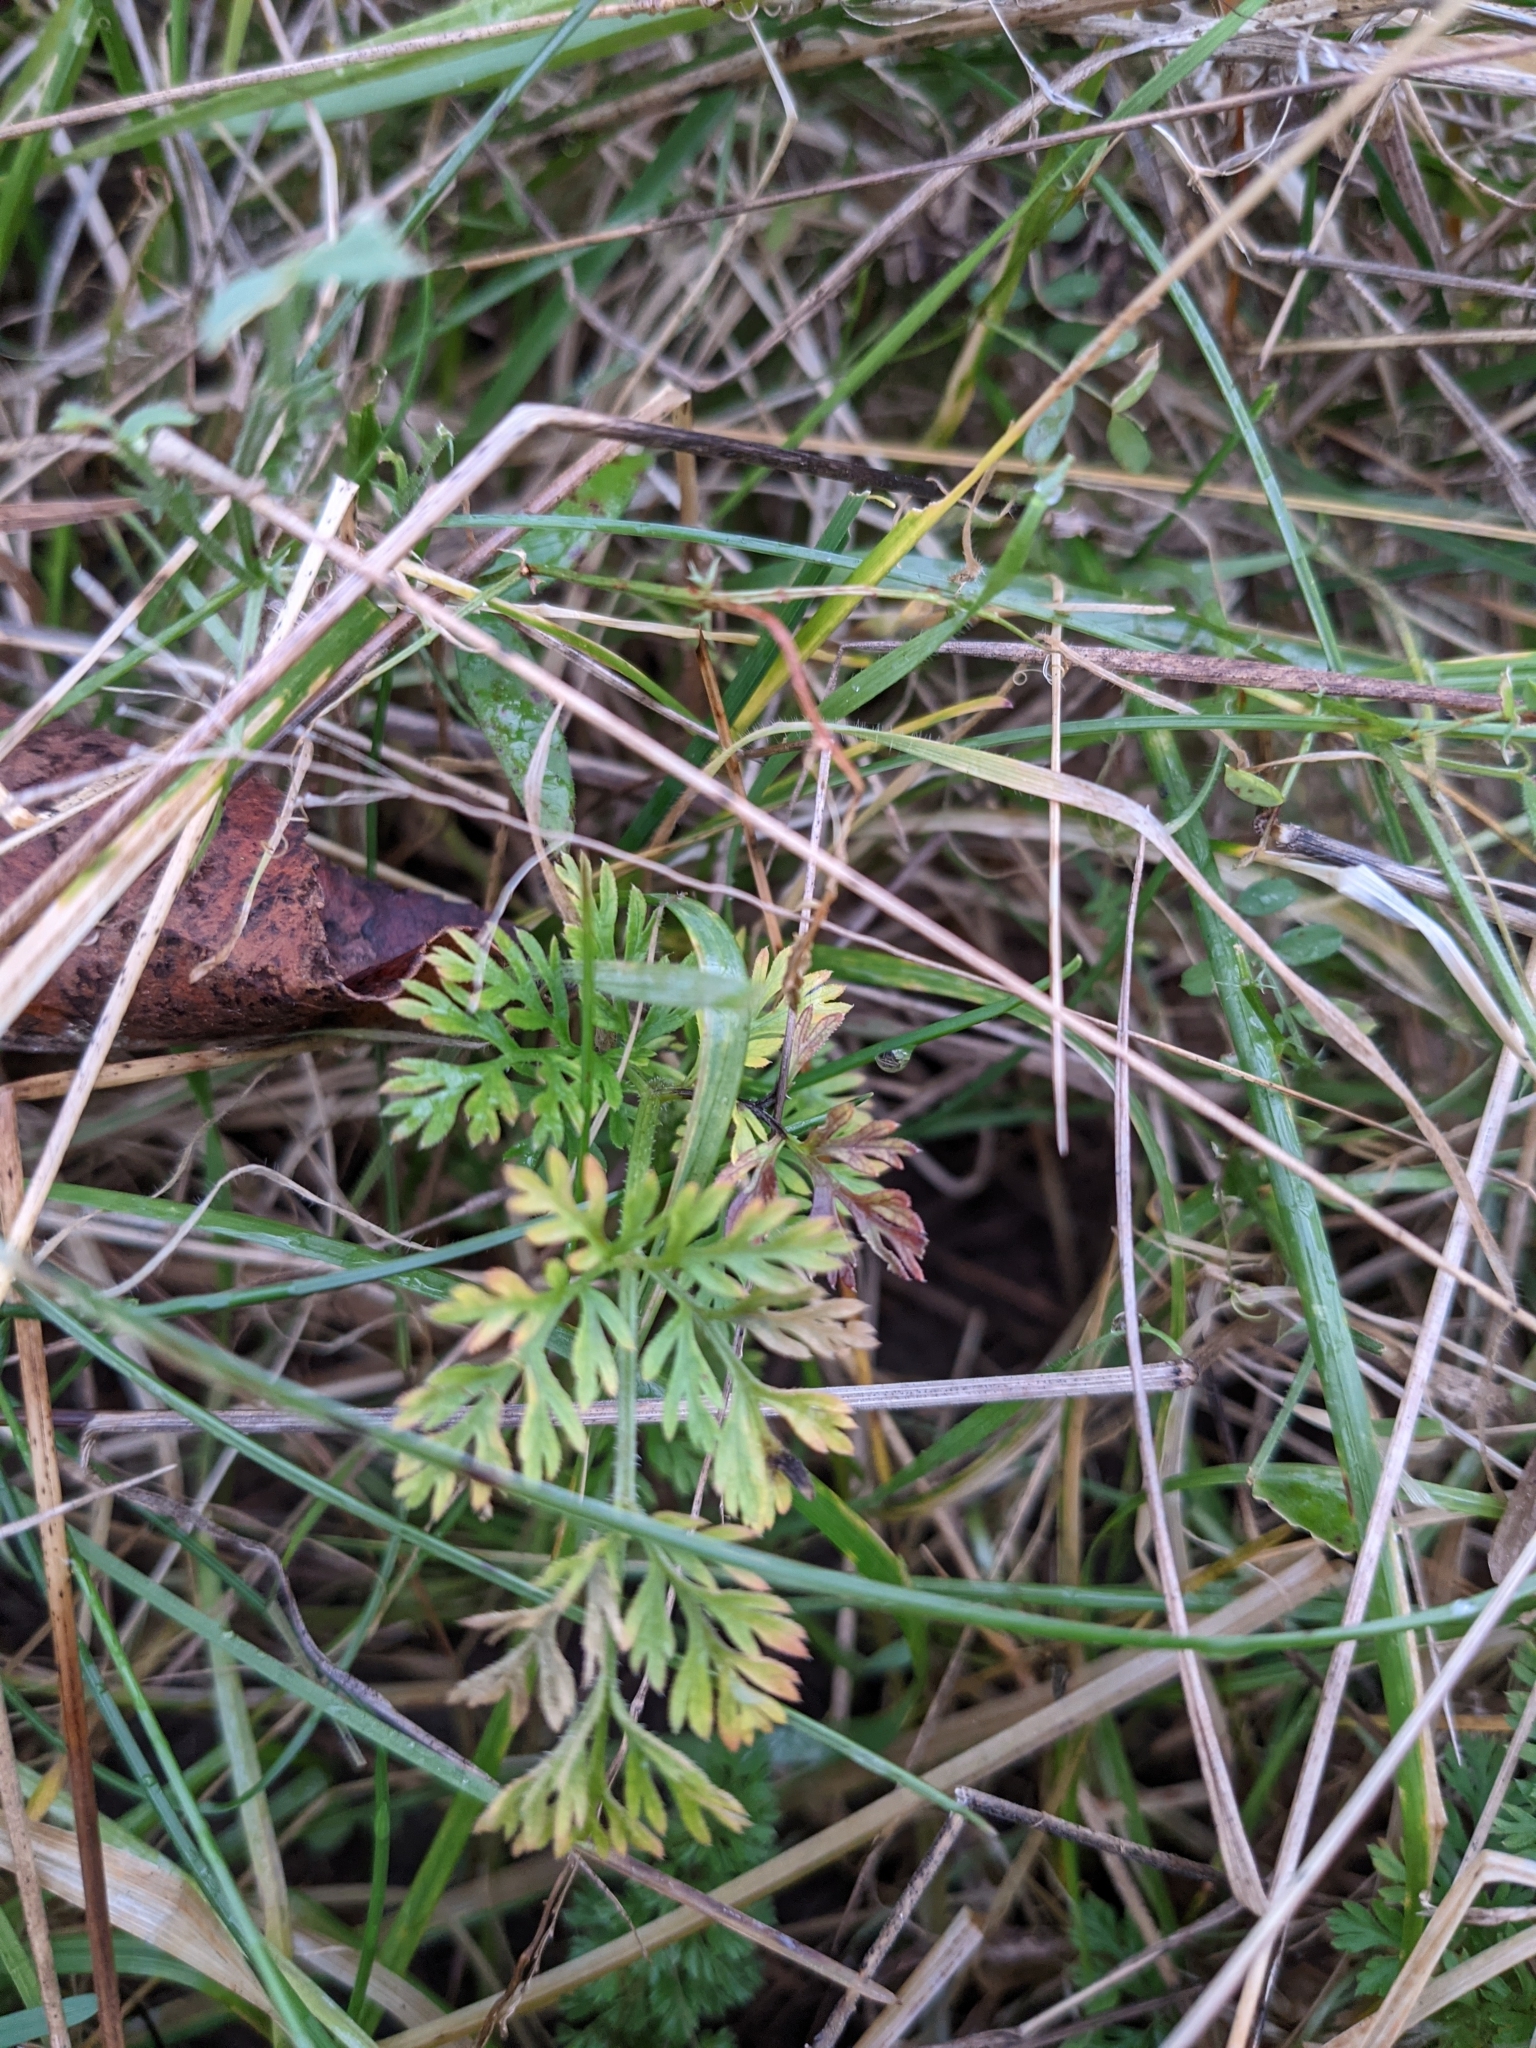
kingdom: Plantae
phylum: Tracheophyta
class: Magnoliopsida
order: Apiales
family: Apiaceae
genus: Daucus
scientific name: Daucus carota
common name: Wild carrot
